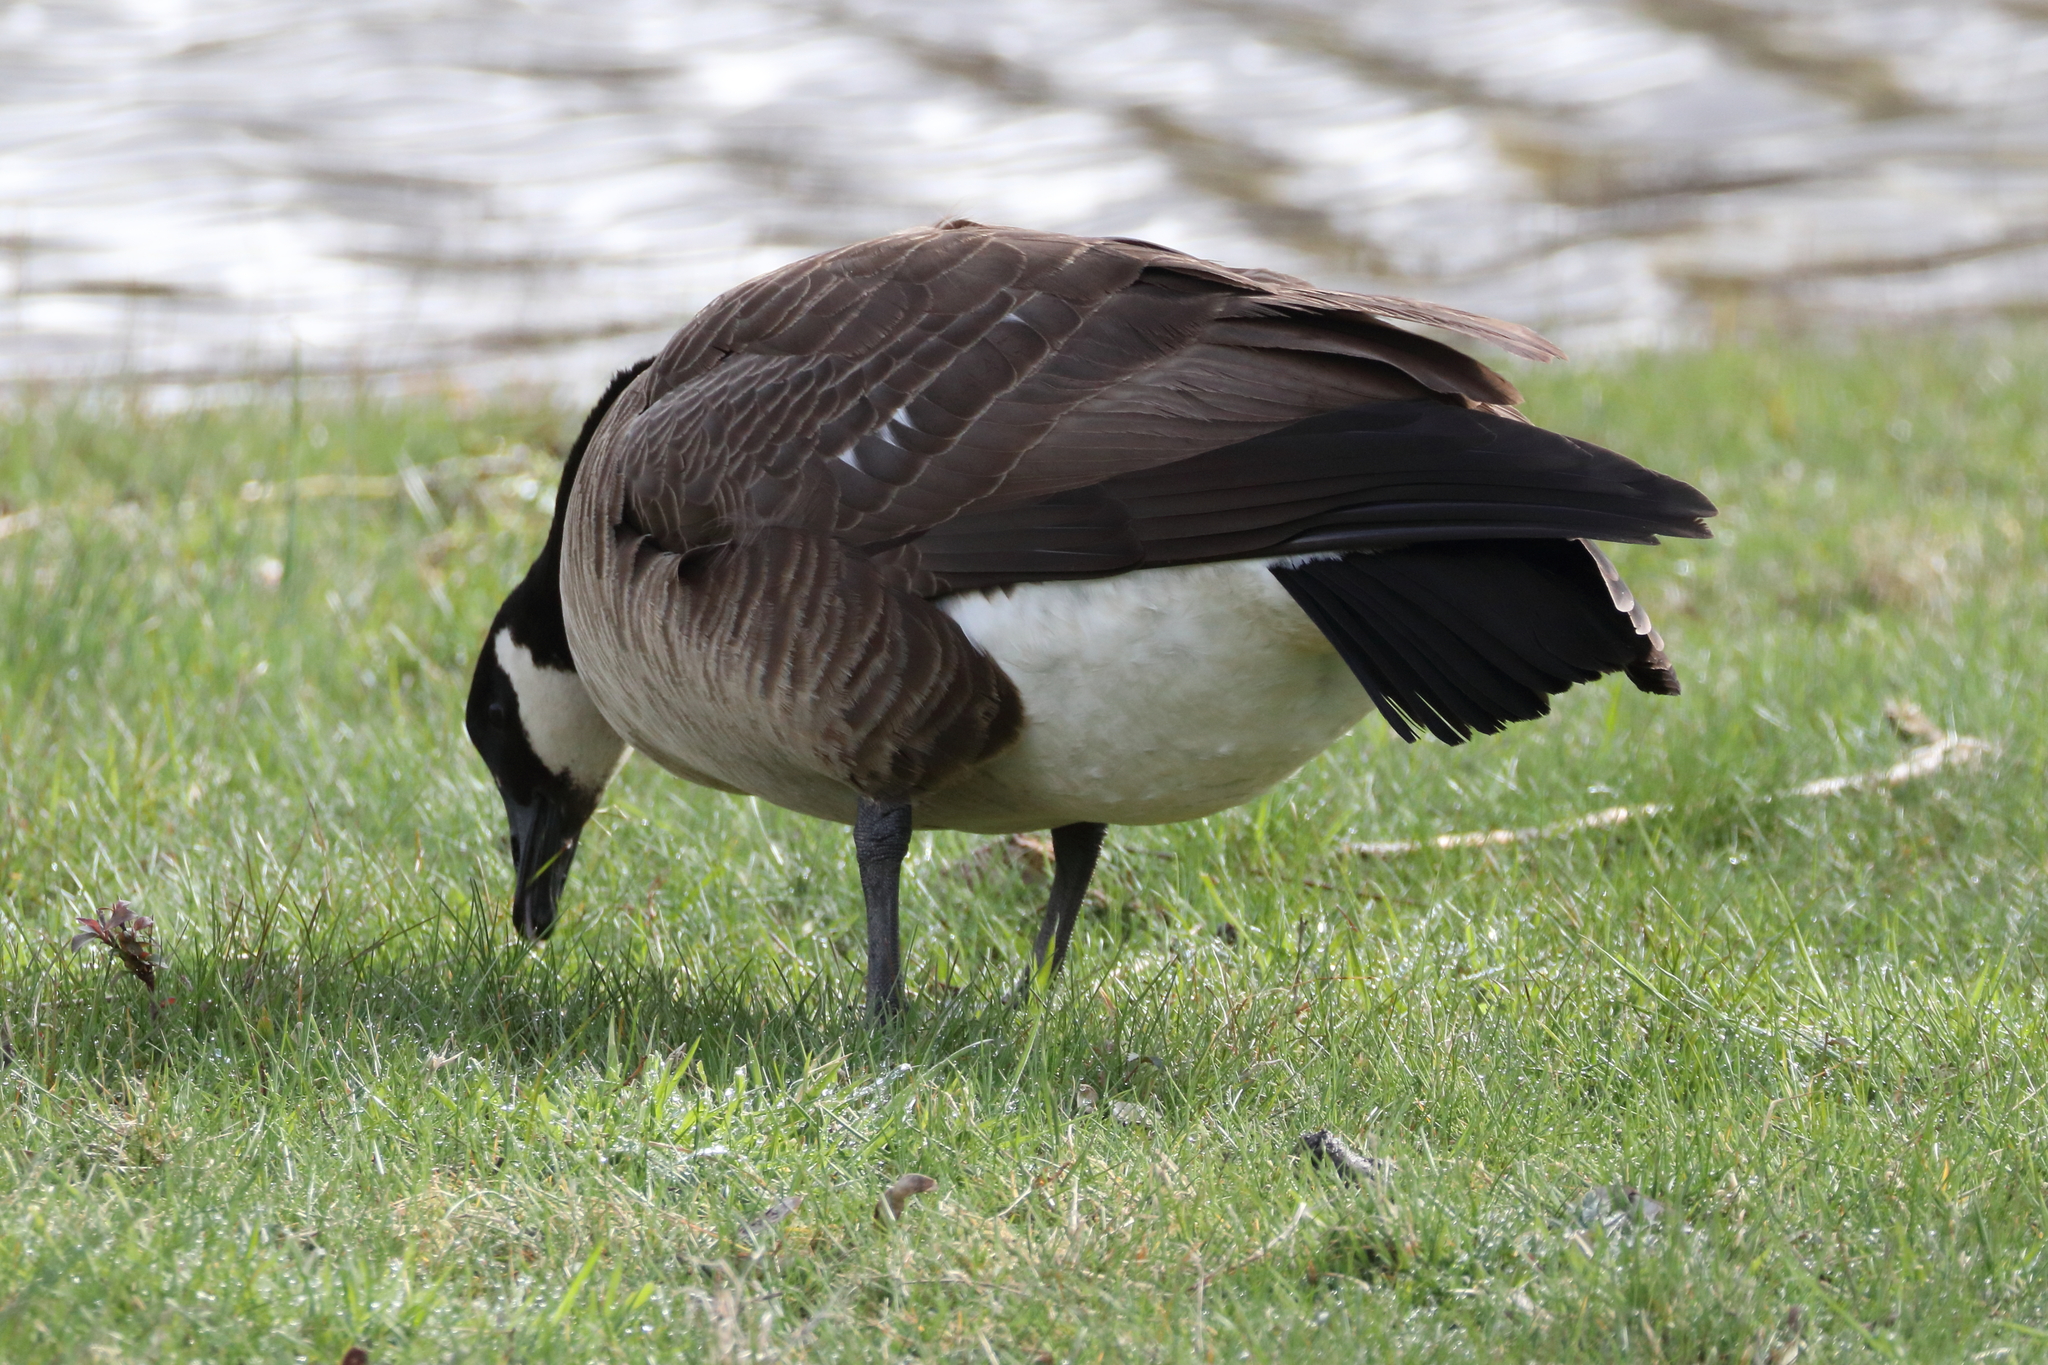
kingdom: Animalia
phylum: Chordata
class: Aves
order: Anseriformes
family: Anatidae
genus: Branta
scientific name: Branta canadensis
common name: Canada goose
